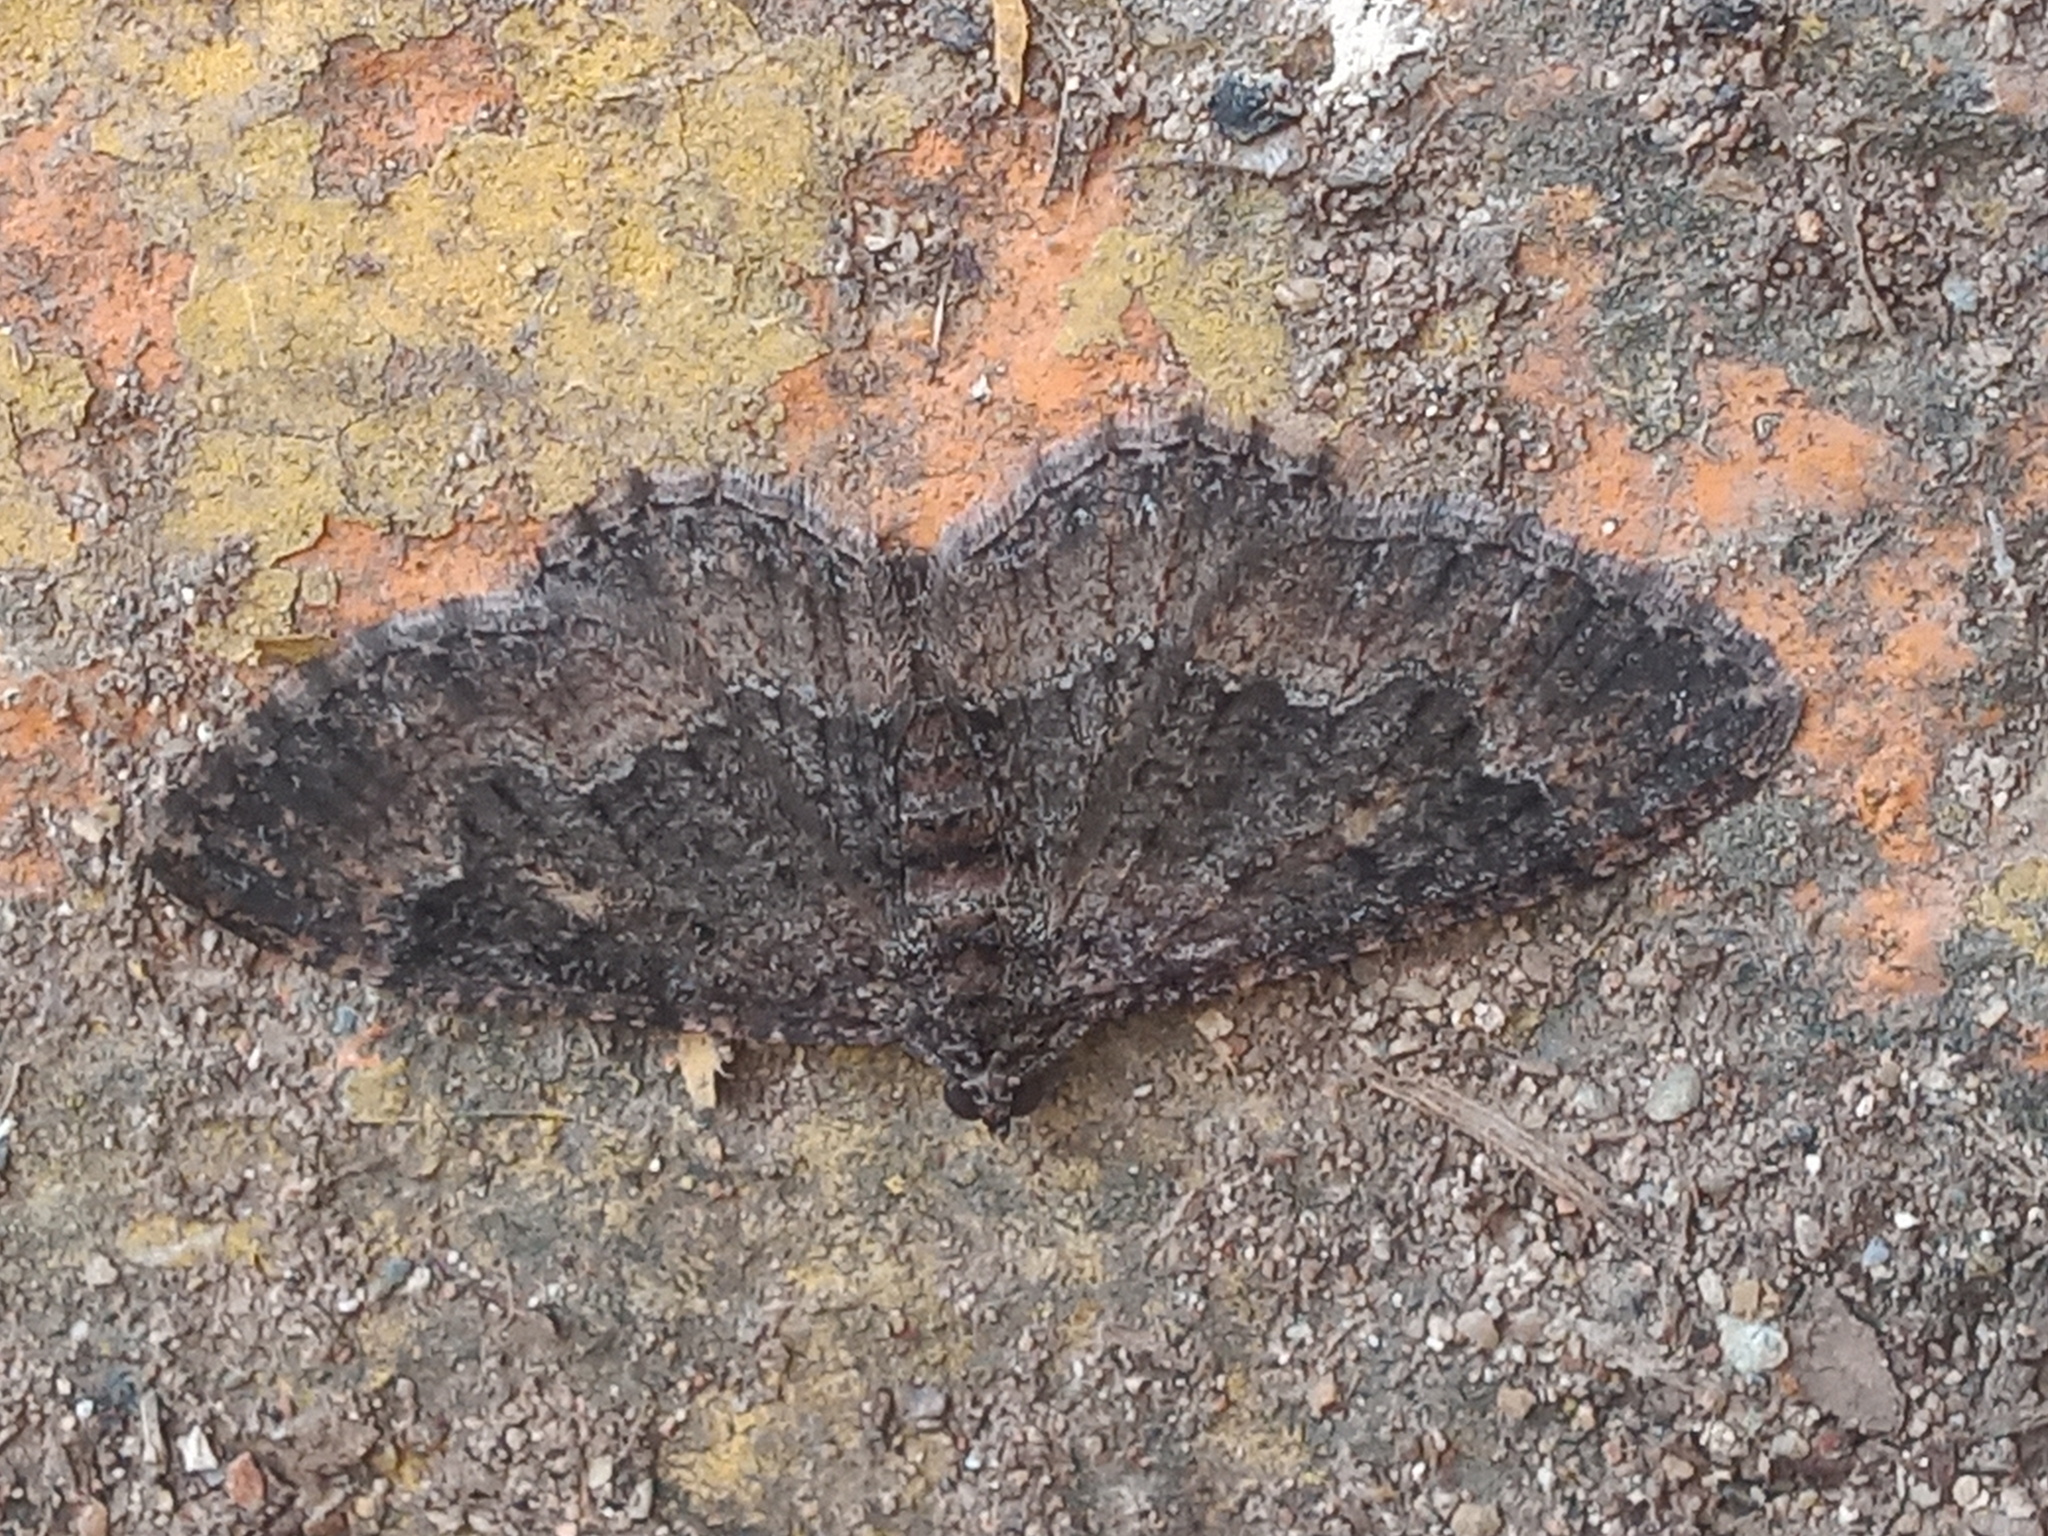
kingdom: Animalia
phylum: Arthropoda
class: Insecta
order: Lepidoptera
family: Geometridae
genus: Disclisioprocta
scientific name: Disclisioprocta stellata
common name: Somber carpet
